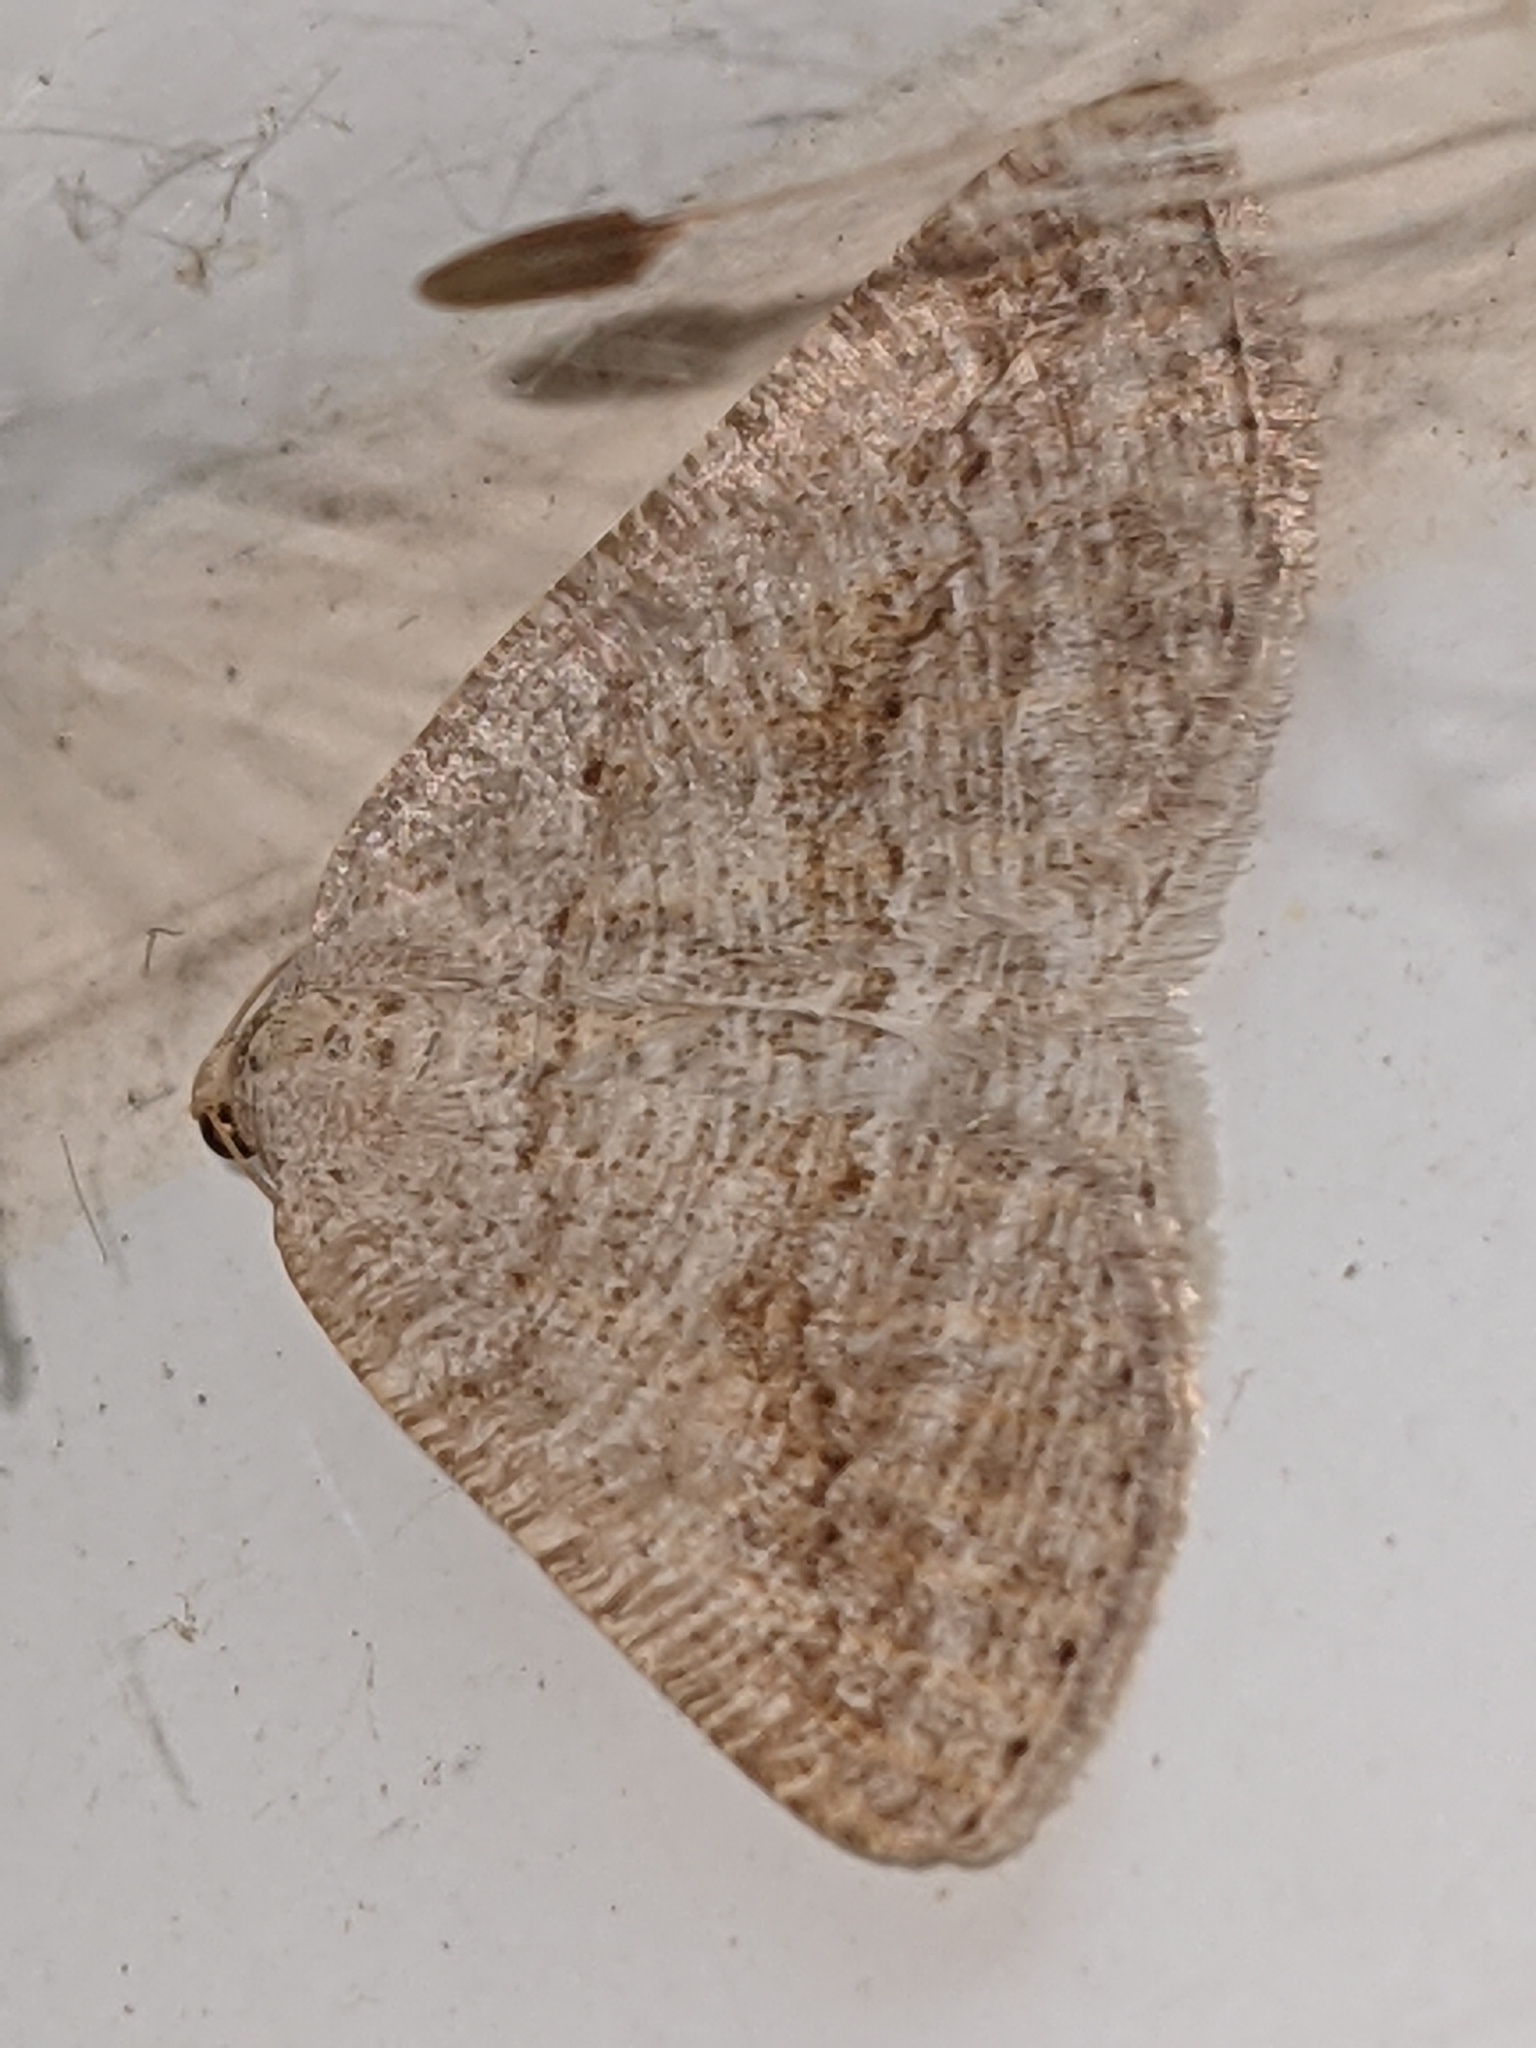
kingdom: Animalia
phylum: Arthropoda
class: Insecta
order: Lepidoptera
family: Geometridae
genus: Tacparia
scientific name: Tacparia detersata
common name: Pale alder moth
